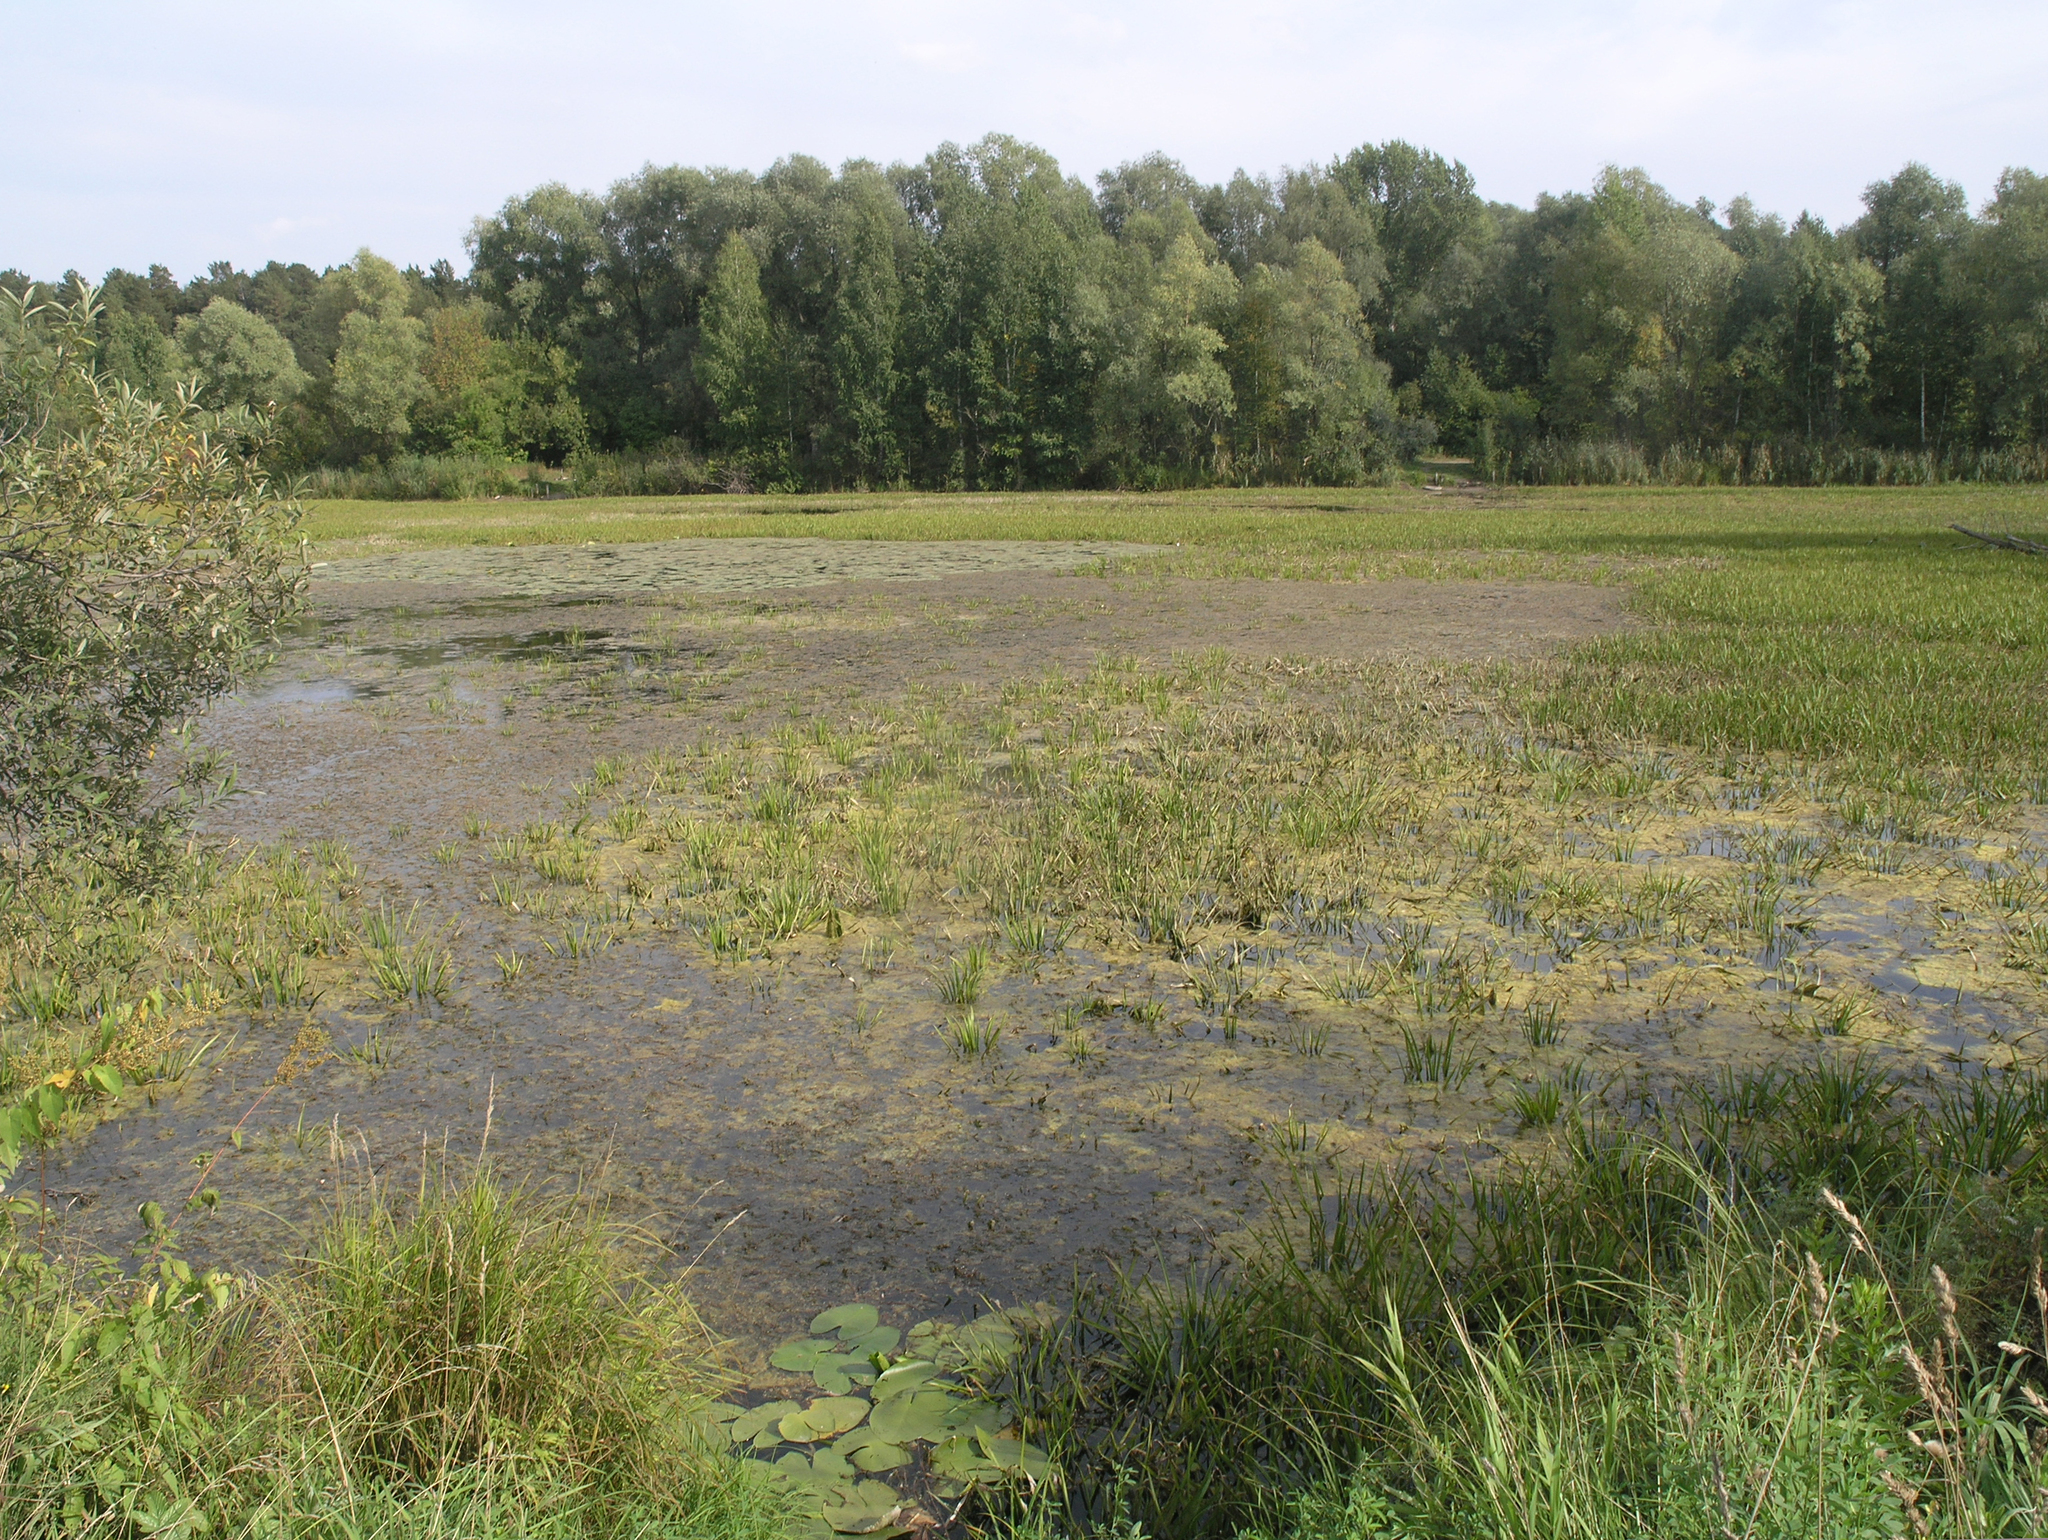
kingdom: Plantae
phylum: Tracheophyta
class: Liliopsida
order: Alismatales
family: Hydrocharitaceae
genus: Stratiotes
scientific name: Stratiotes aloides
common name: Water-soldier
